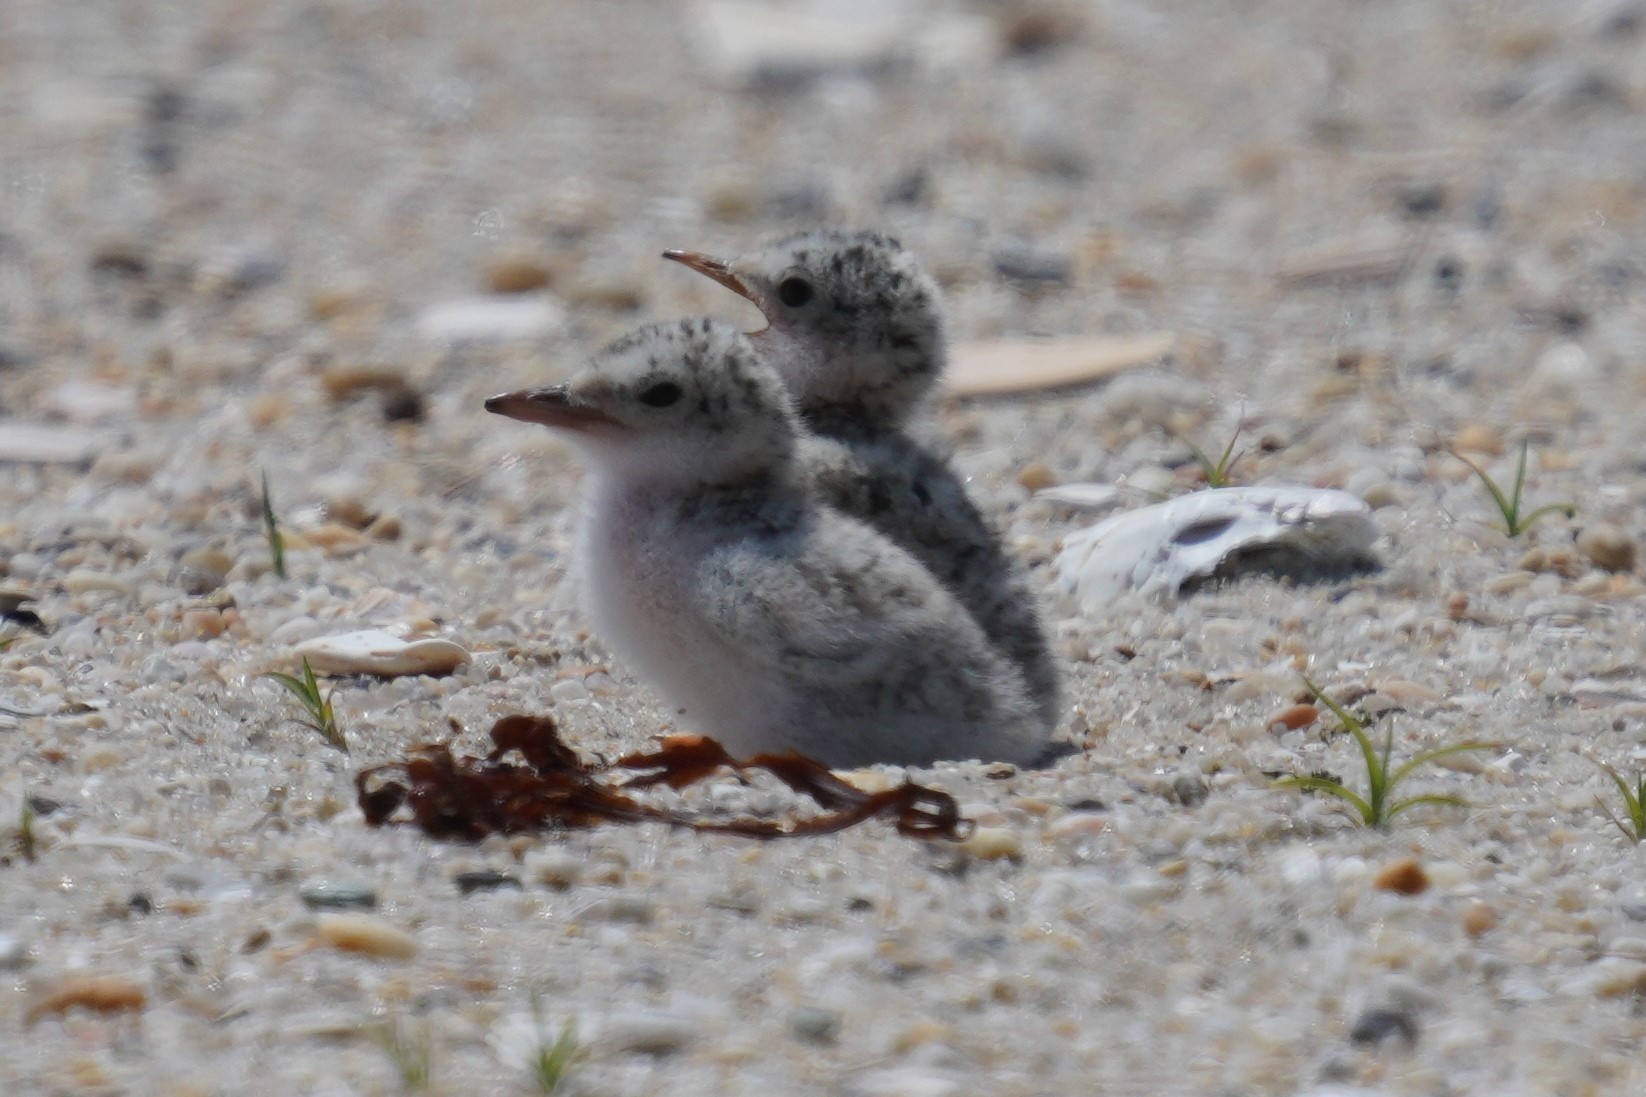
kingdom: Animalia
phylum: Chordata
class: Aves
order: Charadriiformes
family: Laridae
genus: Sternula
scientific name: Sternula antillarum
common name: Least tern
